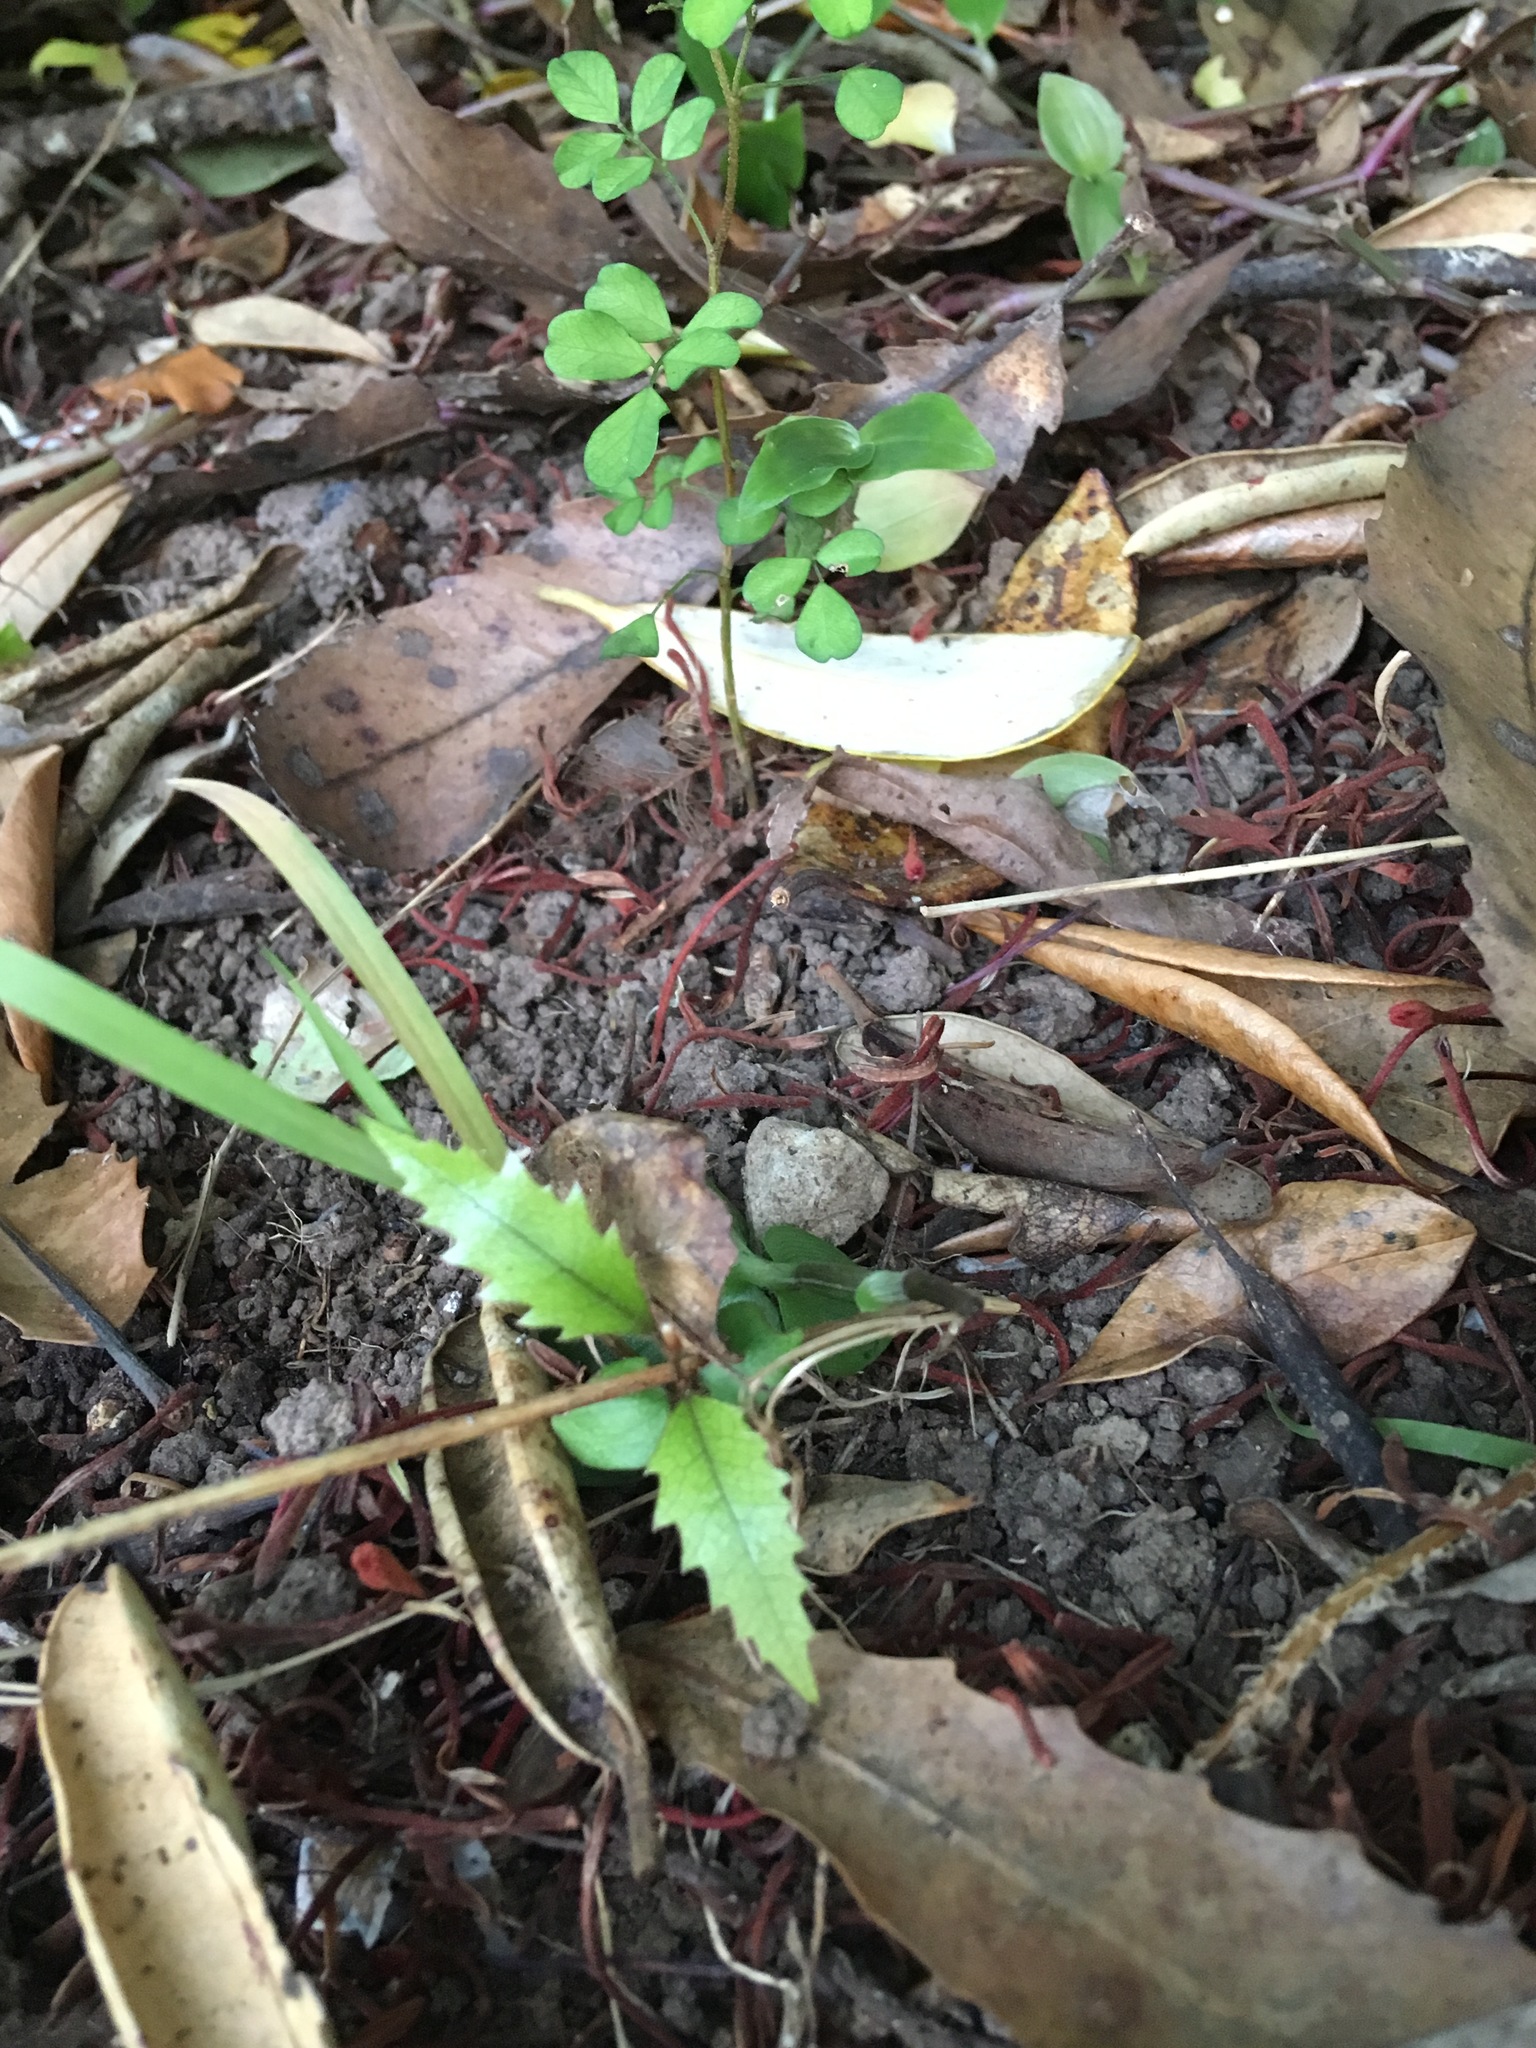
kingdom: Plantae
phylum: Tracheophyta
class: Magnoliopsida
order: Proteales
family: Proteaceae
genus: Knightia
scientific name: Knightia excelsa
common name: New zealand-honeysuckle
